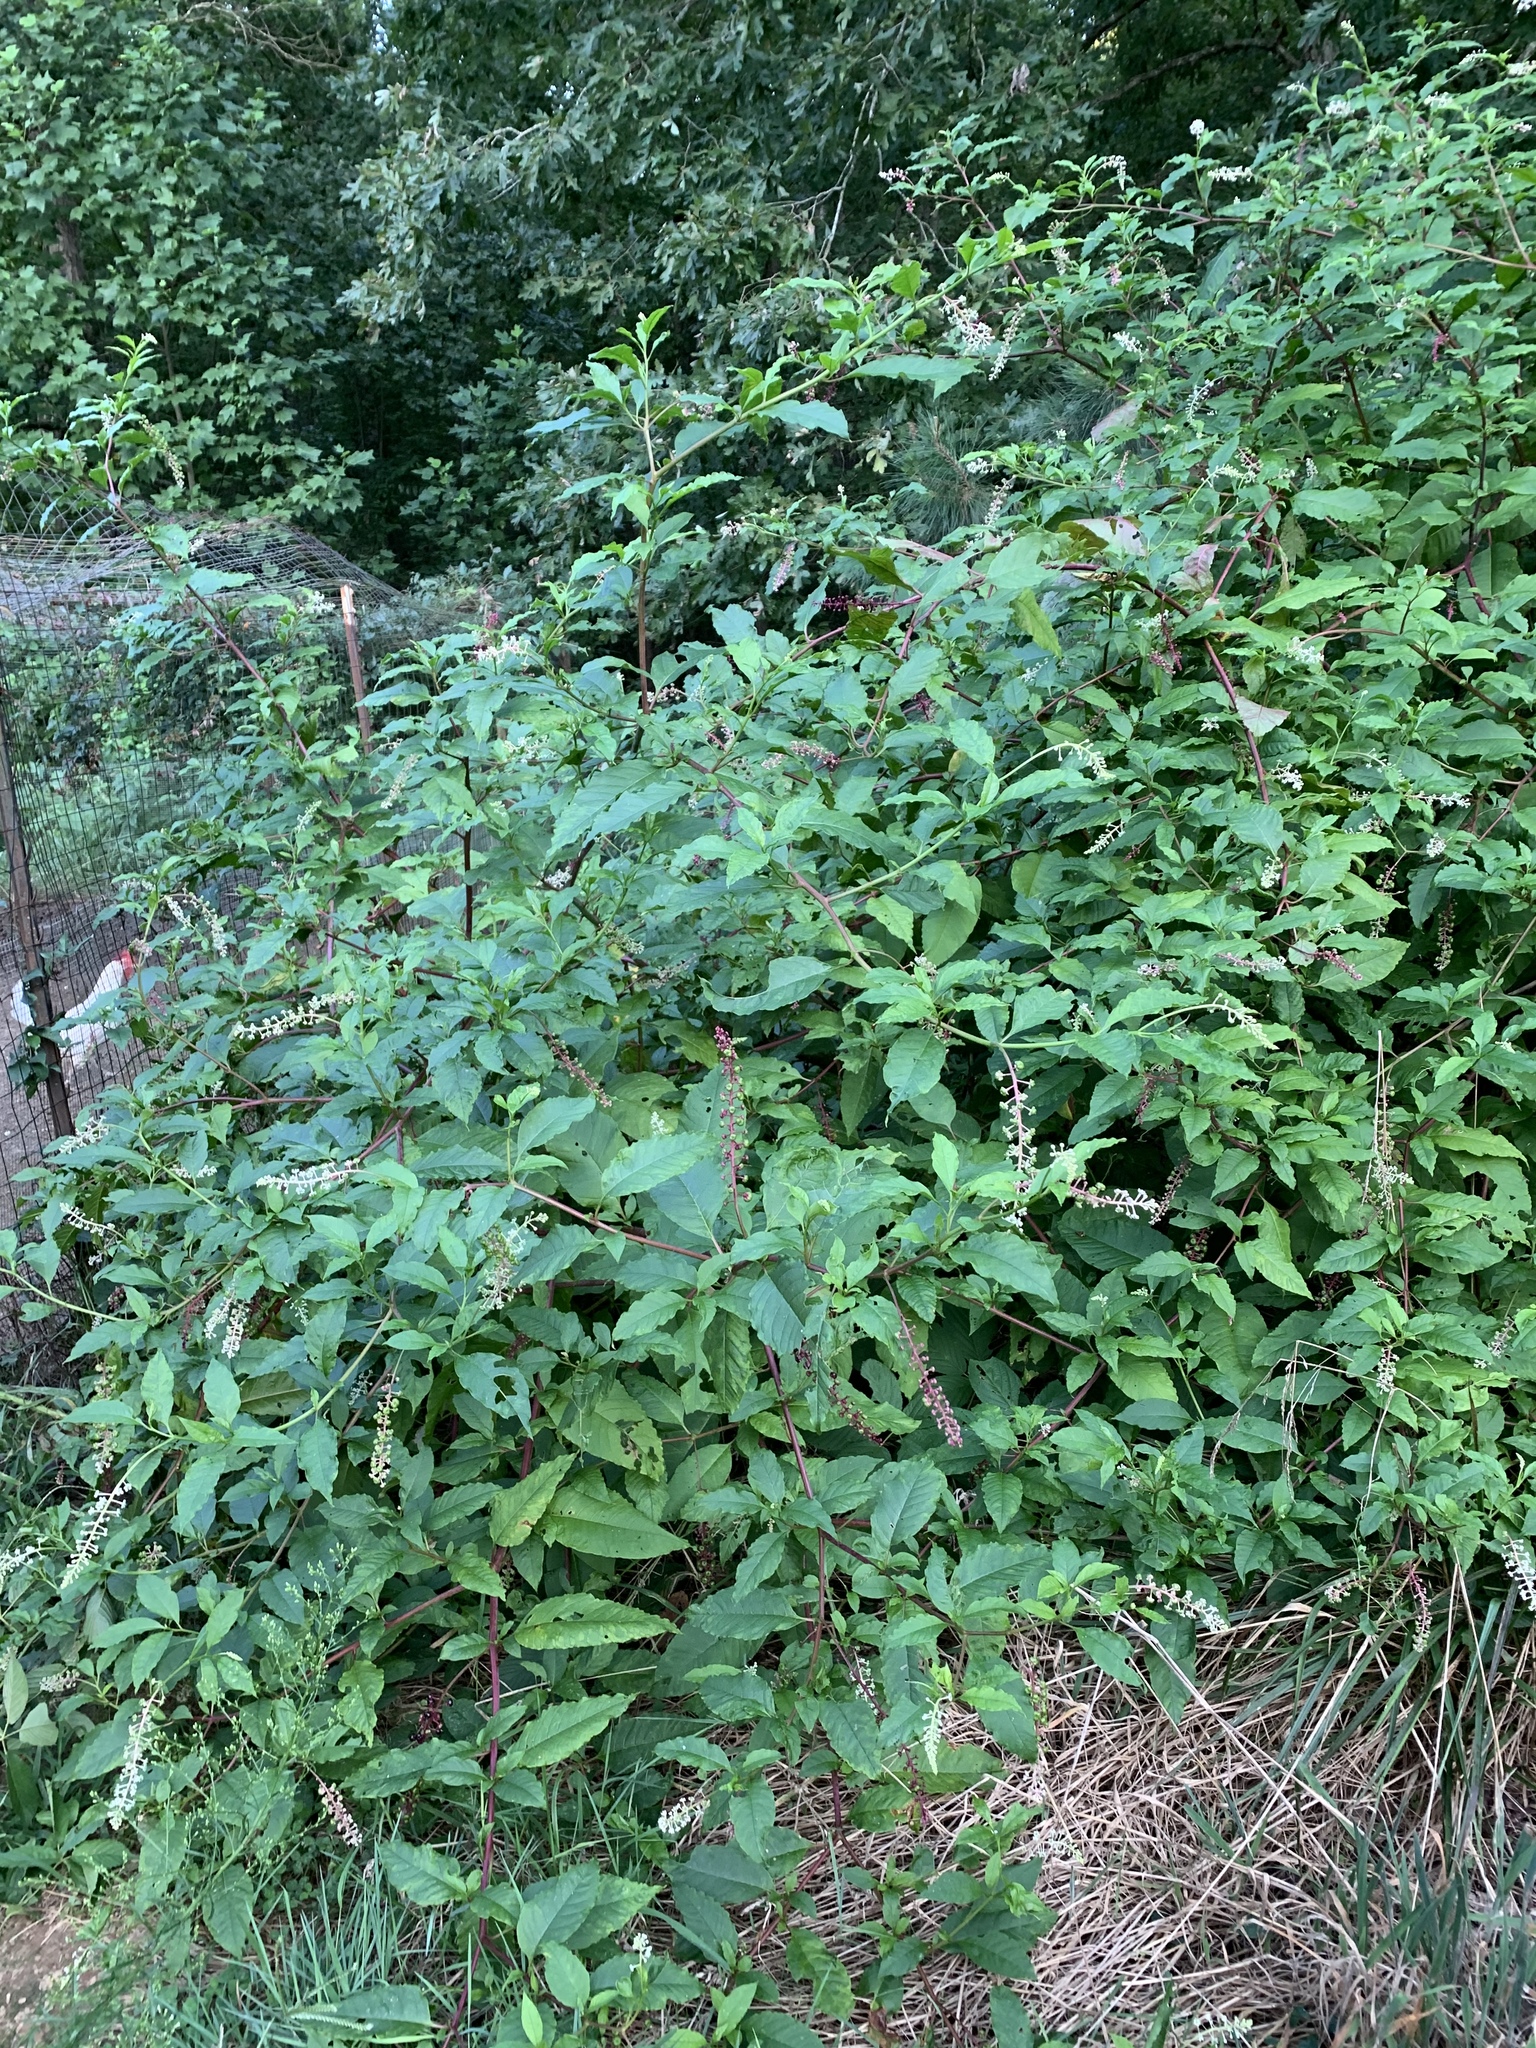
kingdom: Plantae
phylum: Tracheophyta
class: Magnoliopsida
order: Caryophyllales
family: Phytolaccaceae
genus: Phytolacca
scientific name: Phytolacca americana
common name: American pokeweed
